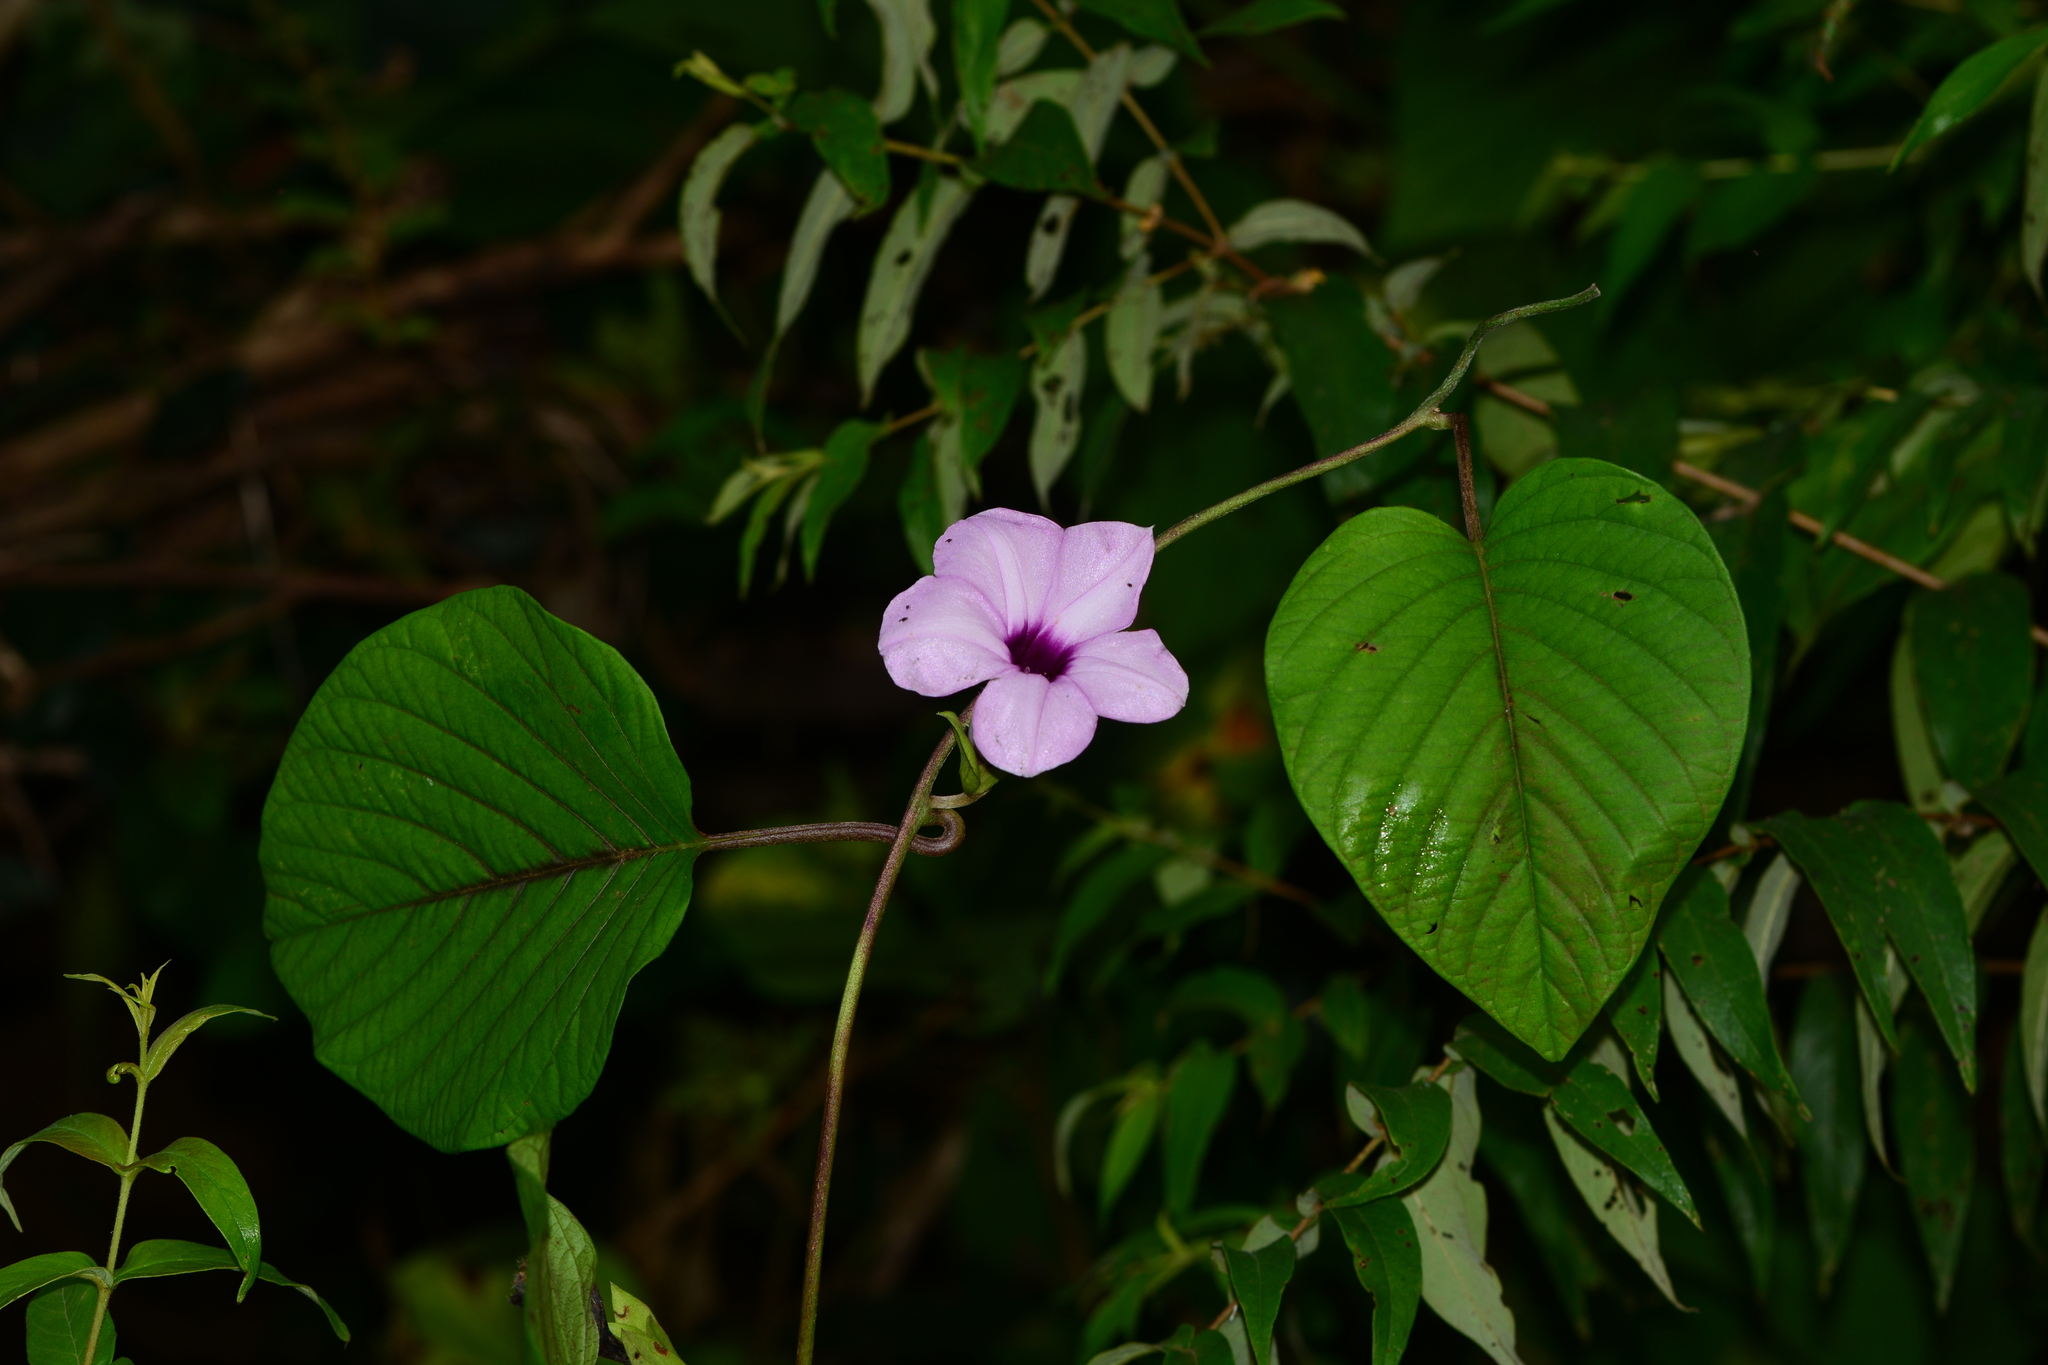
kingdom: Plantae
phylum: Tracheophyta
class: Magnoliopsida
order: Solanales
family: Convolvulaceae
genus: Argyreia
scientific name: Argyreia hookeri
